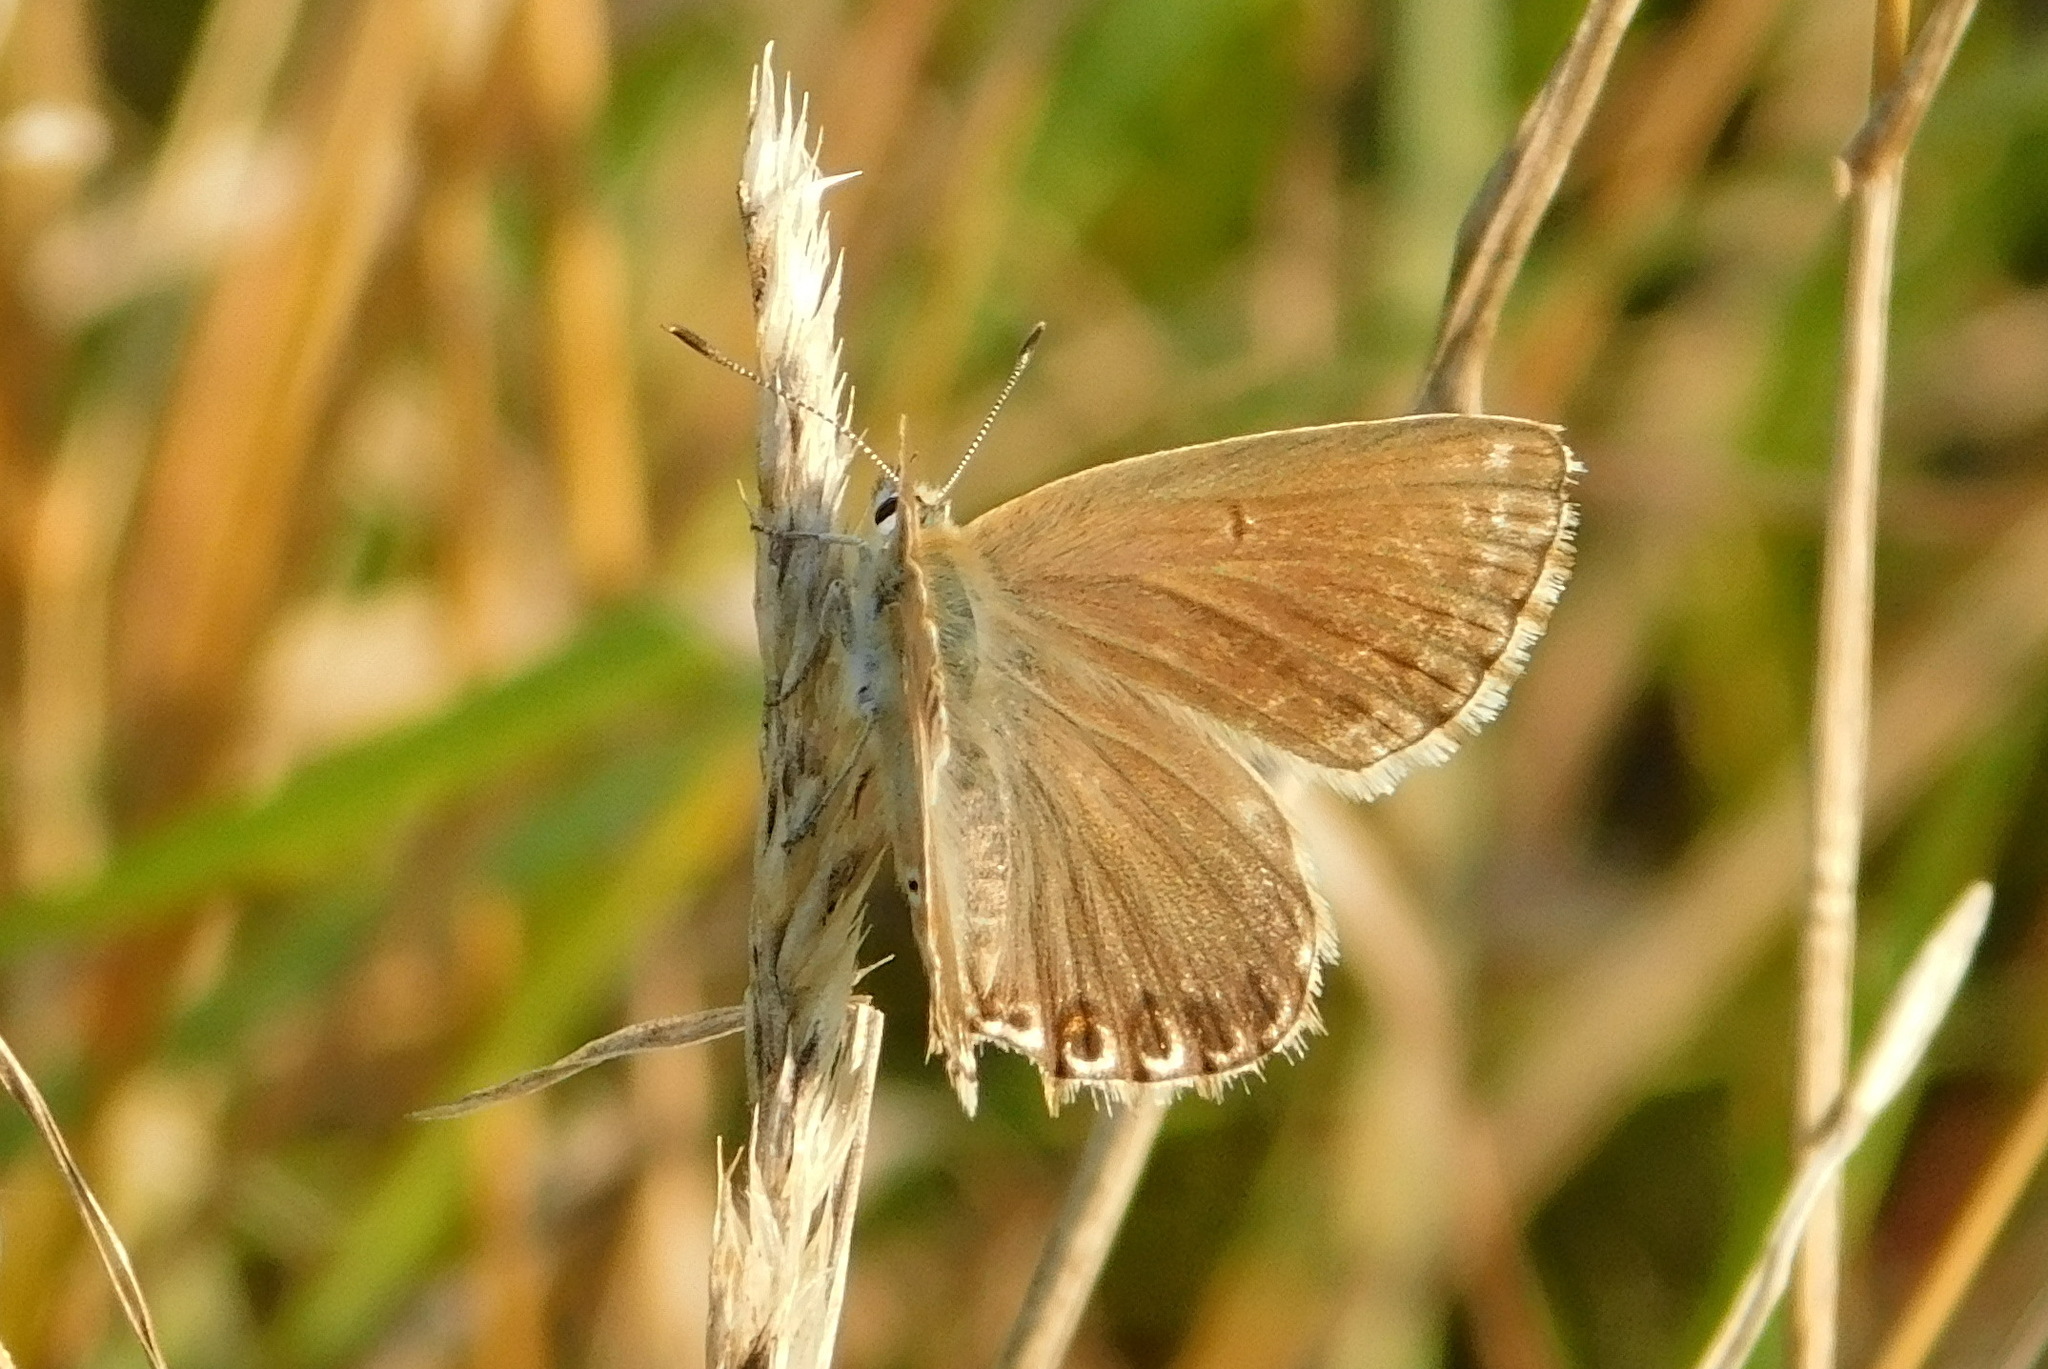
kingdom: Animalia
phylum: Arthropoda
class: Insecta
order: Lepidoptera
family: Lycaenidae
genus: Lysandra
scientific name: Lysandra coridon
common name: Chalkhill blue
